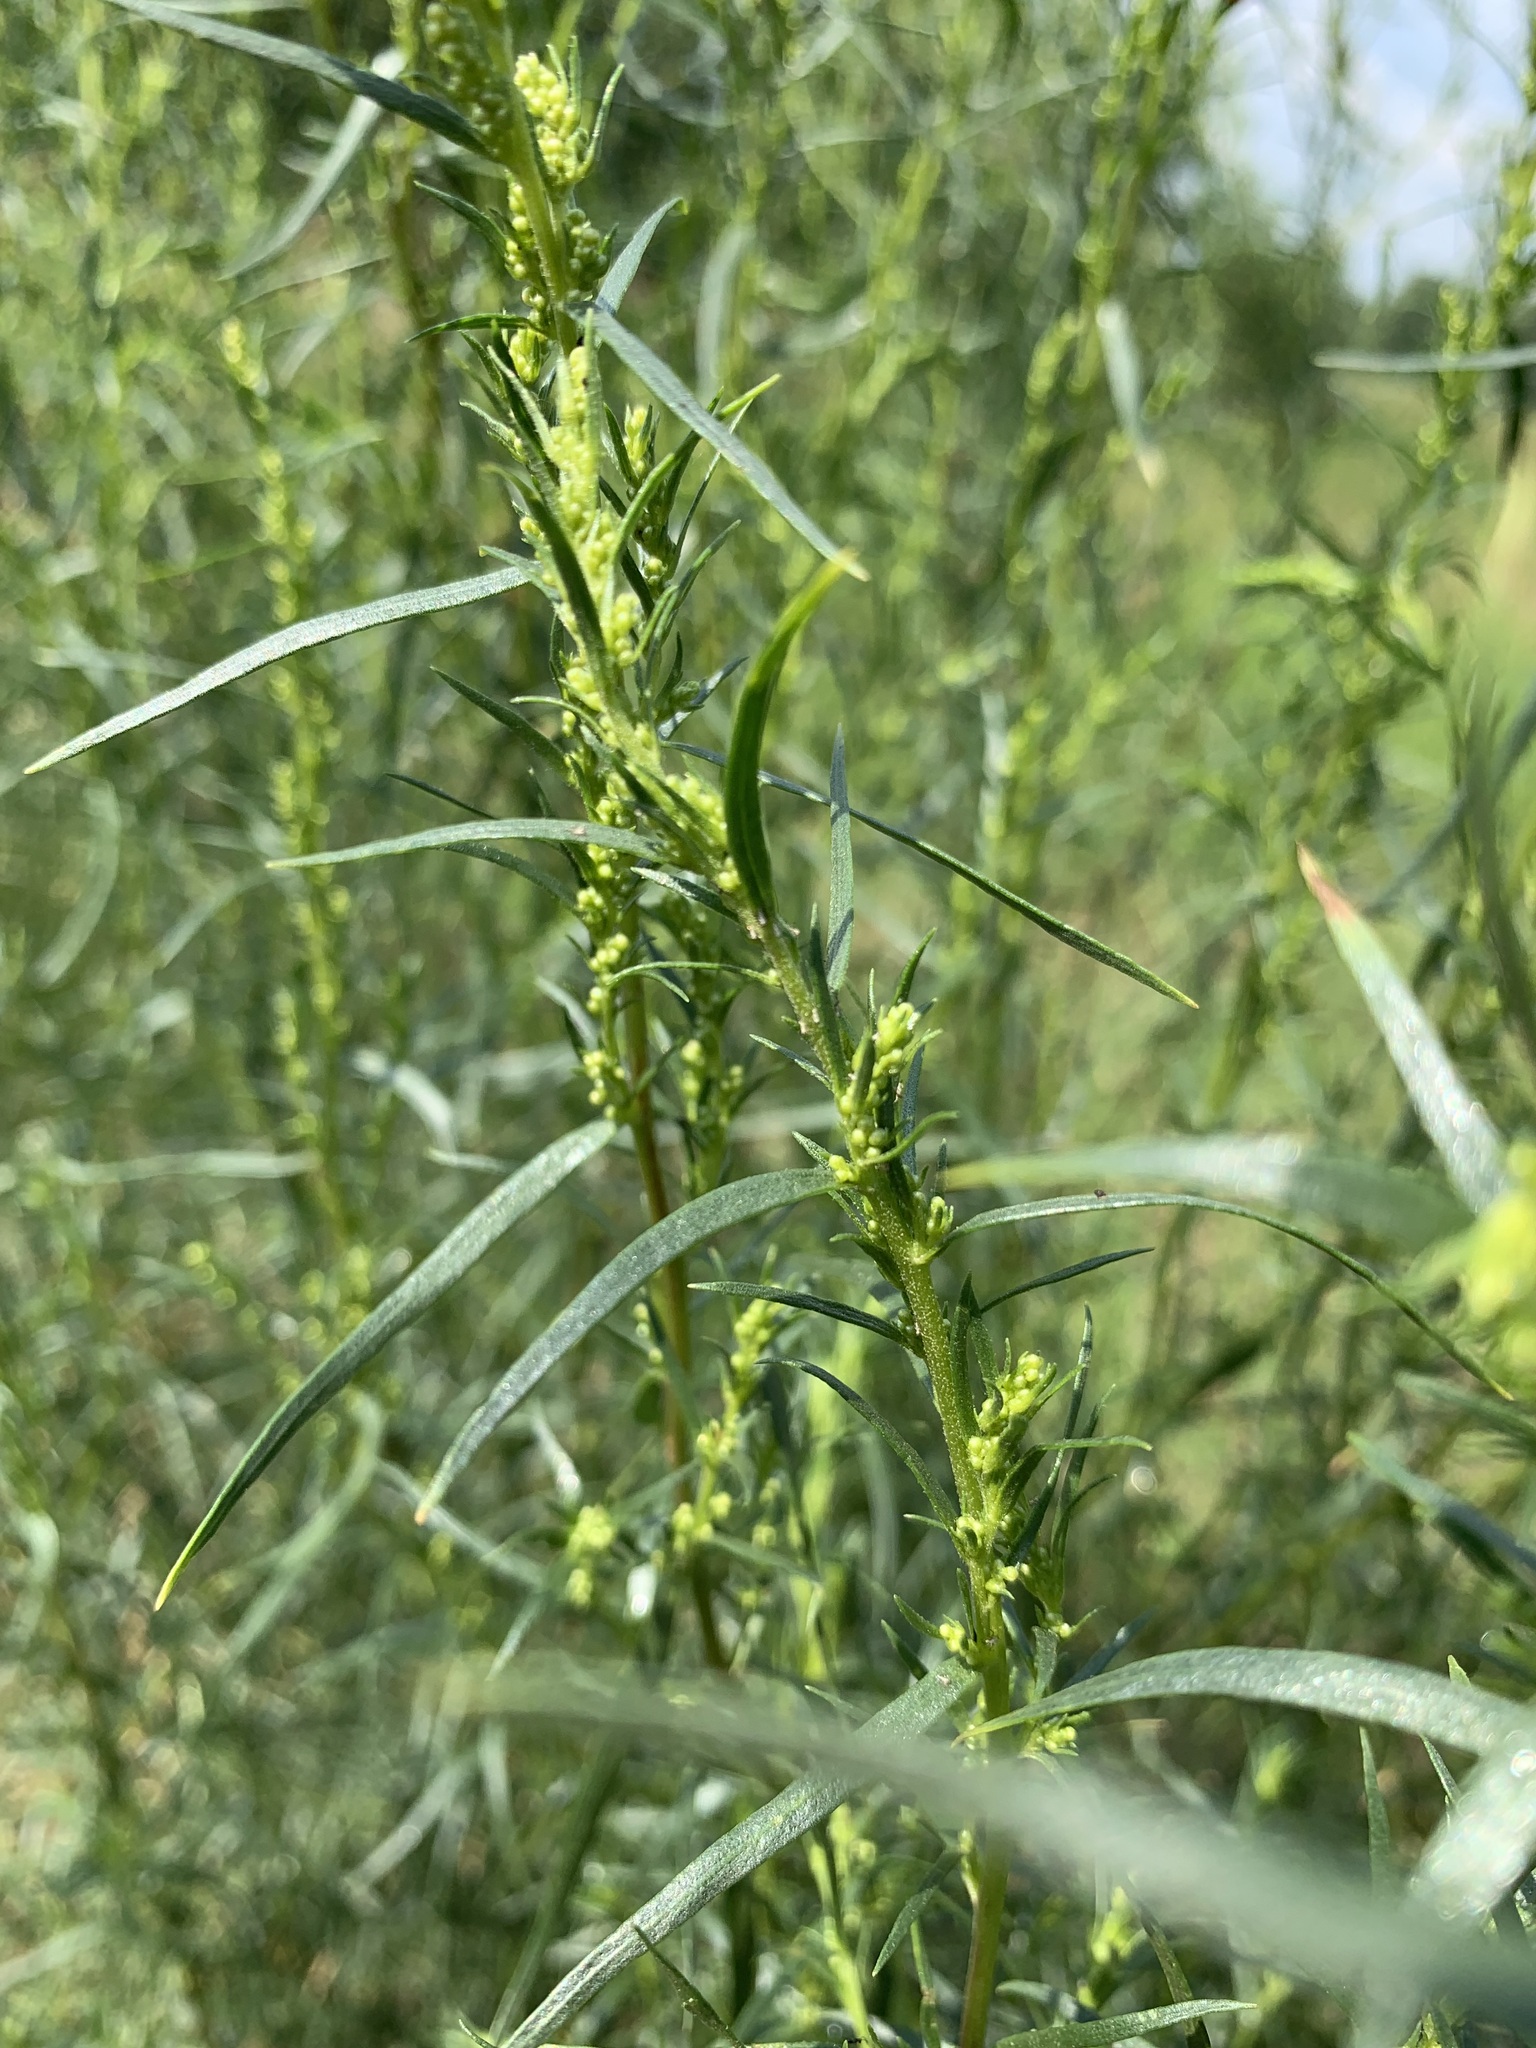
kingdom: Plantae
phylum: Tracheophyta
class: Magnoliopsida
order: Asterales
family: Asteraceae
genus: Artemisia
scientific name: Artemisia dracunculus
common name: Tarragon
